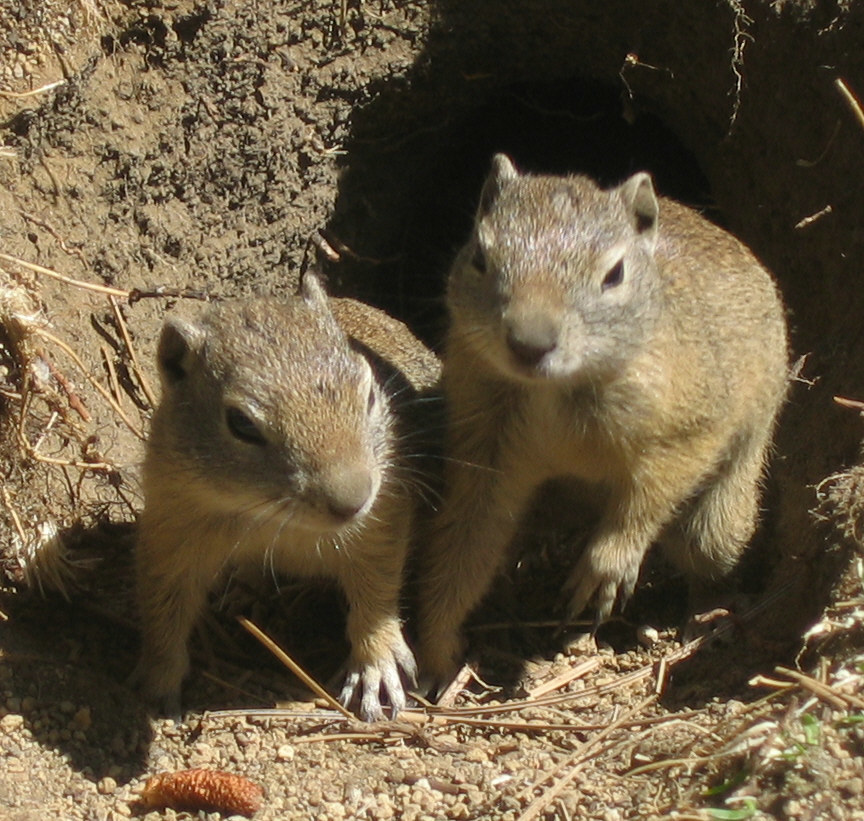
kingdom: Animalia
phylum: Chordata
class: Mammalia
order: Rodentia
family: Sciuridae
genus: Urocitellus
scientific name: Urocitellus beldingi
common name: Belding's ground squirrel
